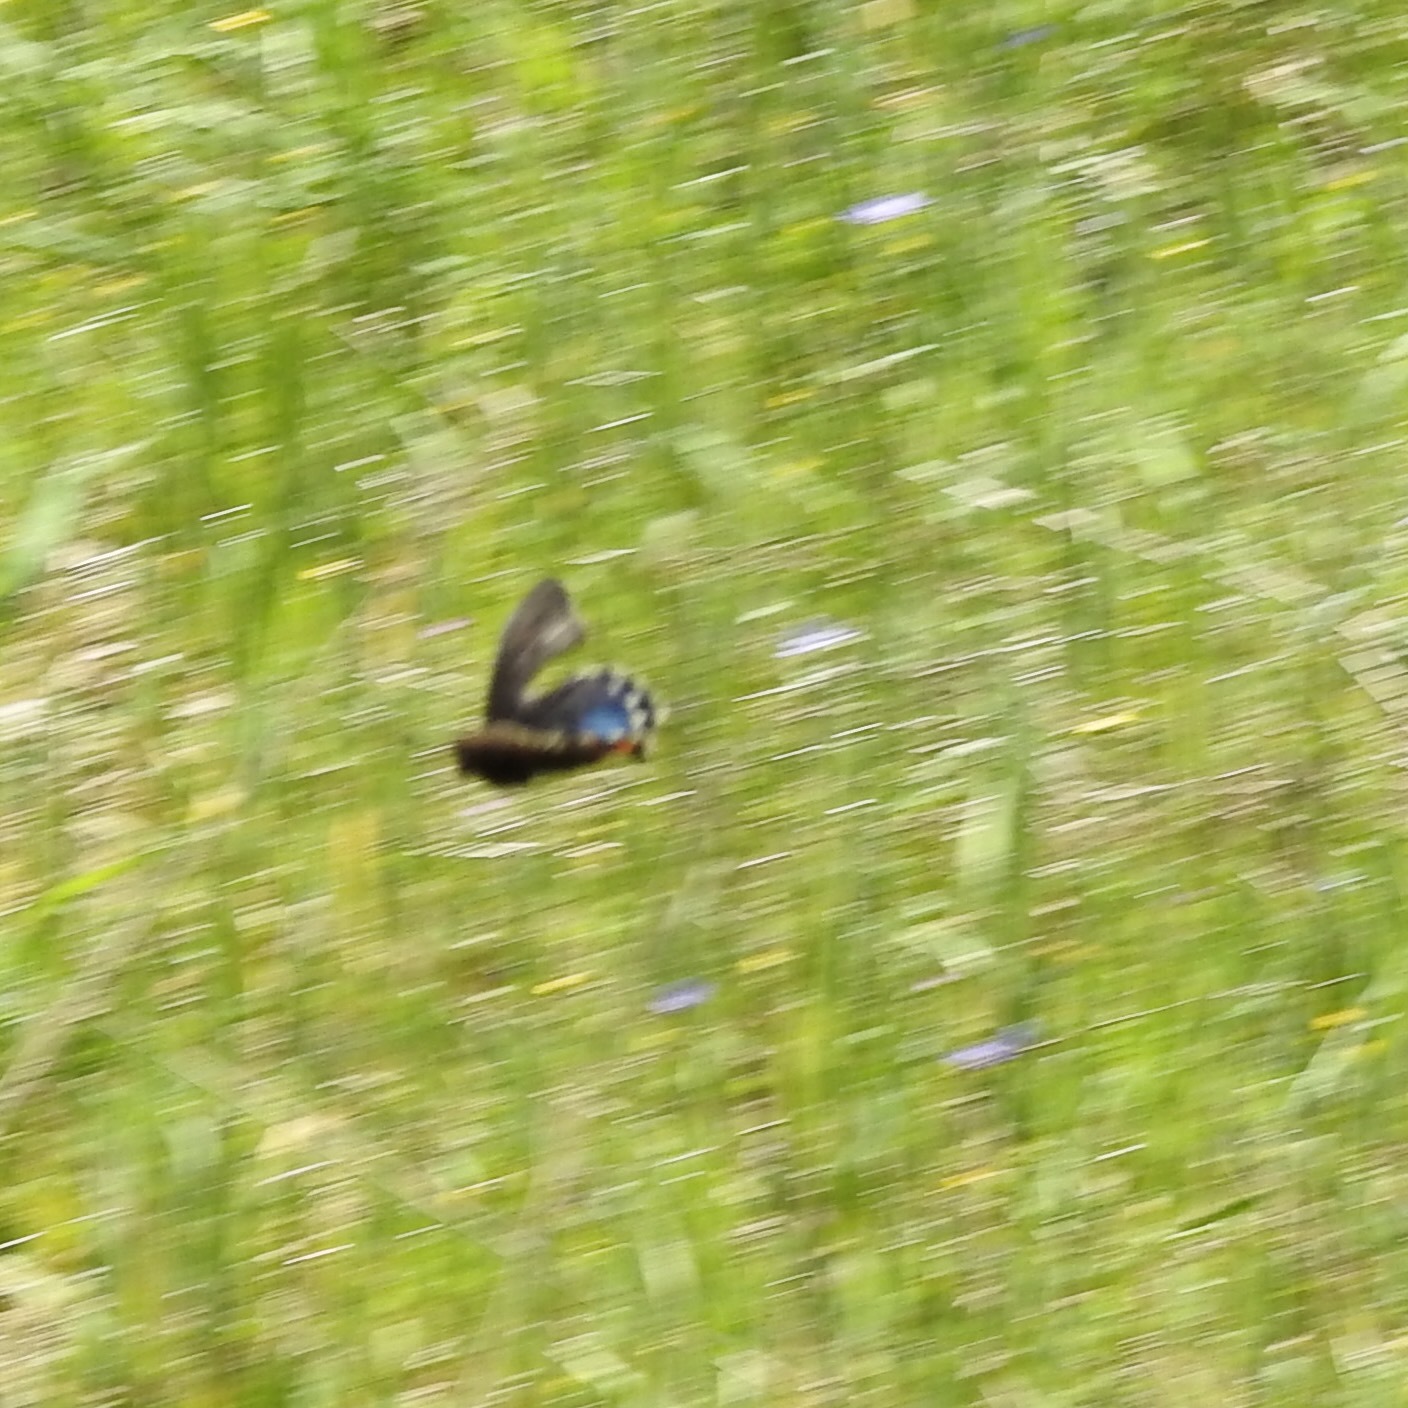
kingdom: Animalia
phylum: Arthropoda
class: Insecta
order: Lepidoptera
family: Papilionidae
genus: Battus
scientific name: Battus philenor
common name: Pipevine swallowtail
